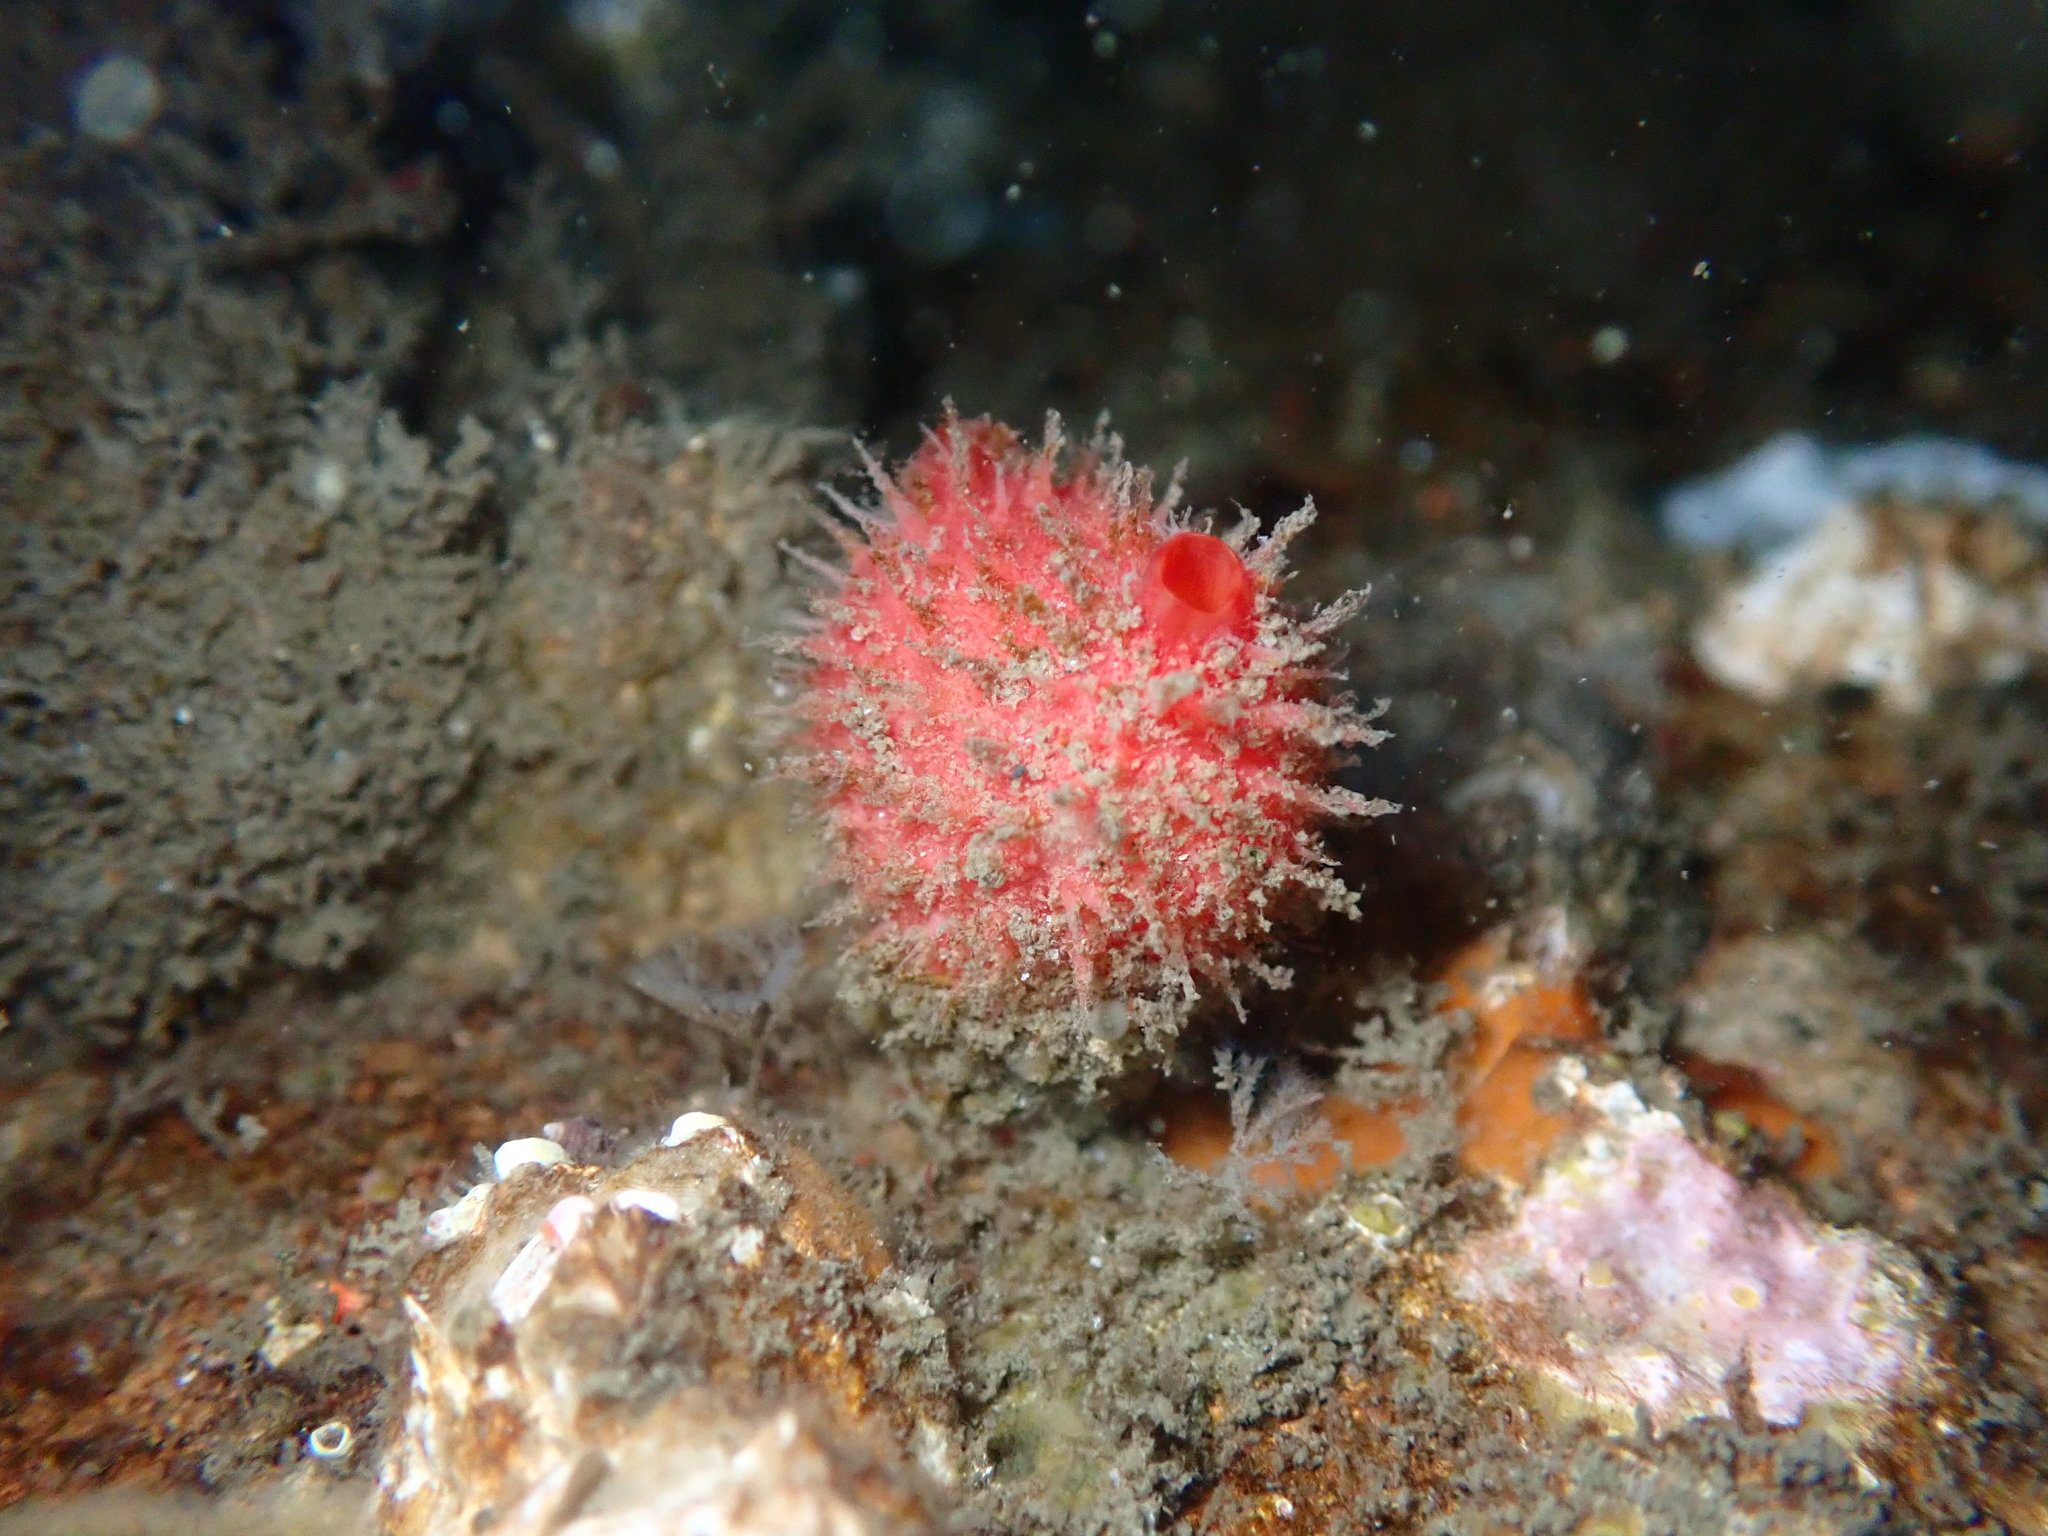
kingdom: Animalia
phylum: Chordata
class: Ascidiacea
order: Stolidobranchia
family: Pyuridae
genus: Boltenia
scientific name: Boltenia villosa
